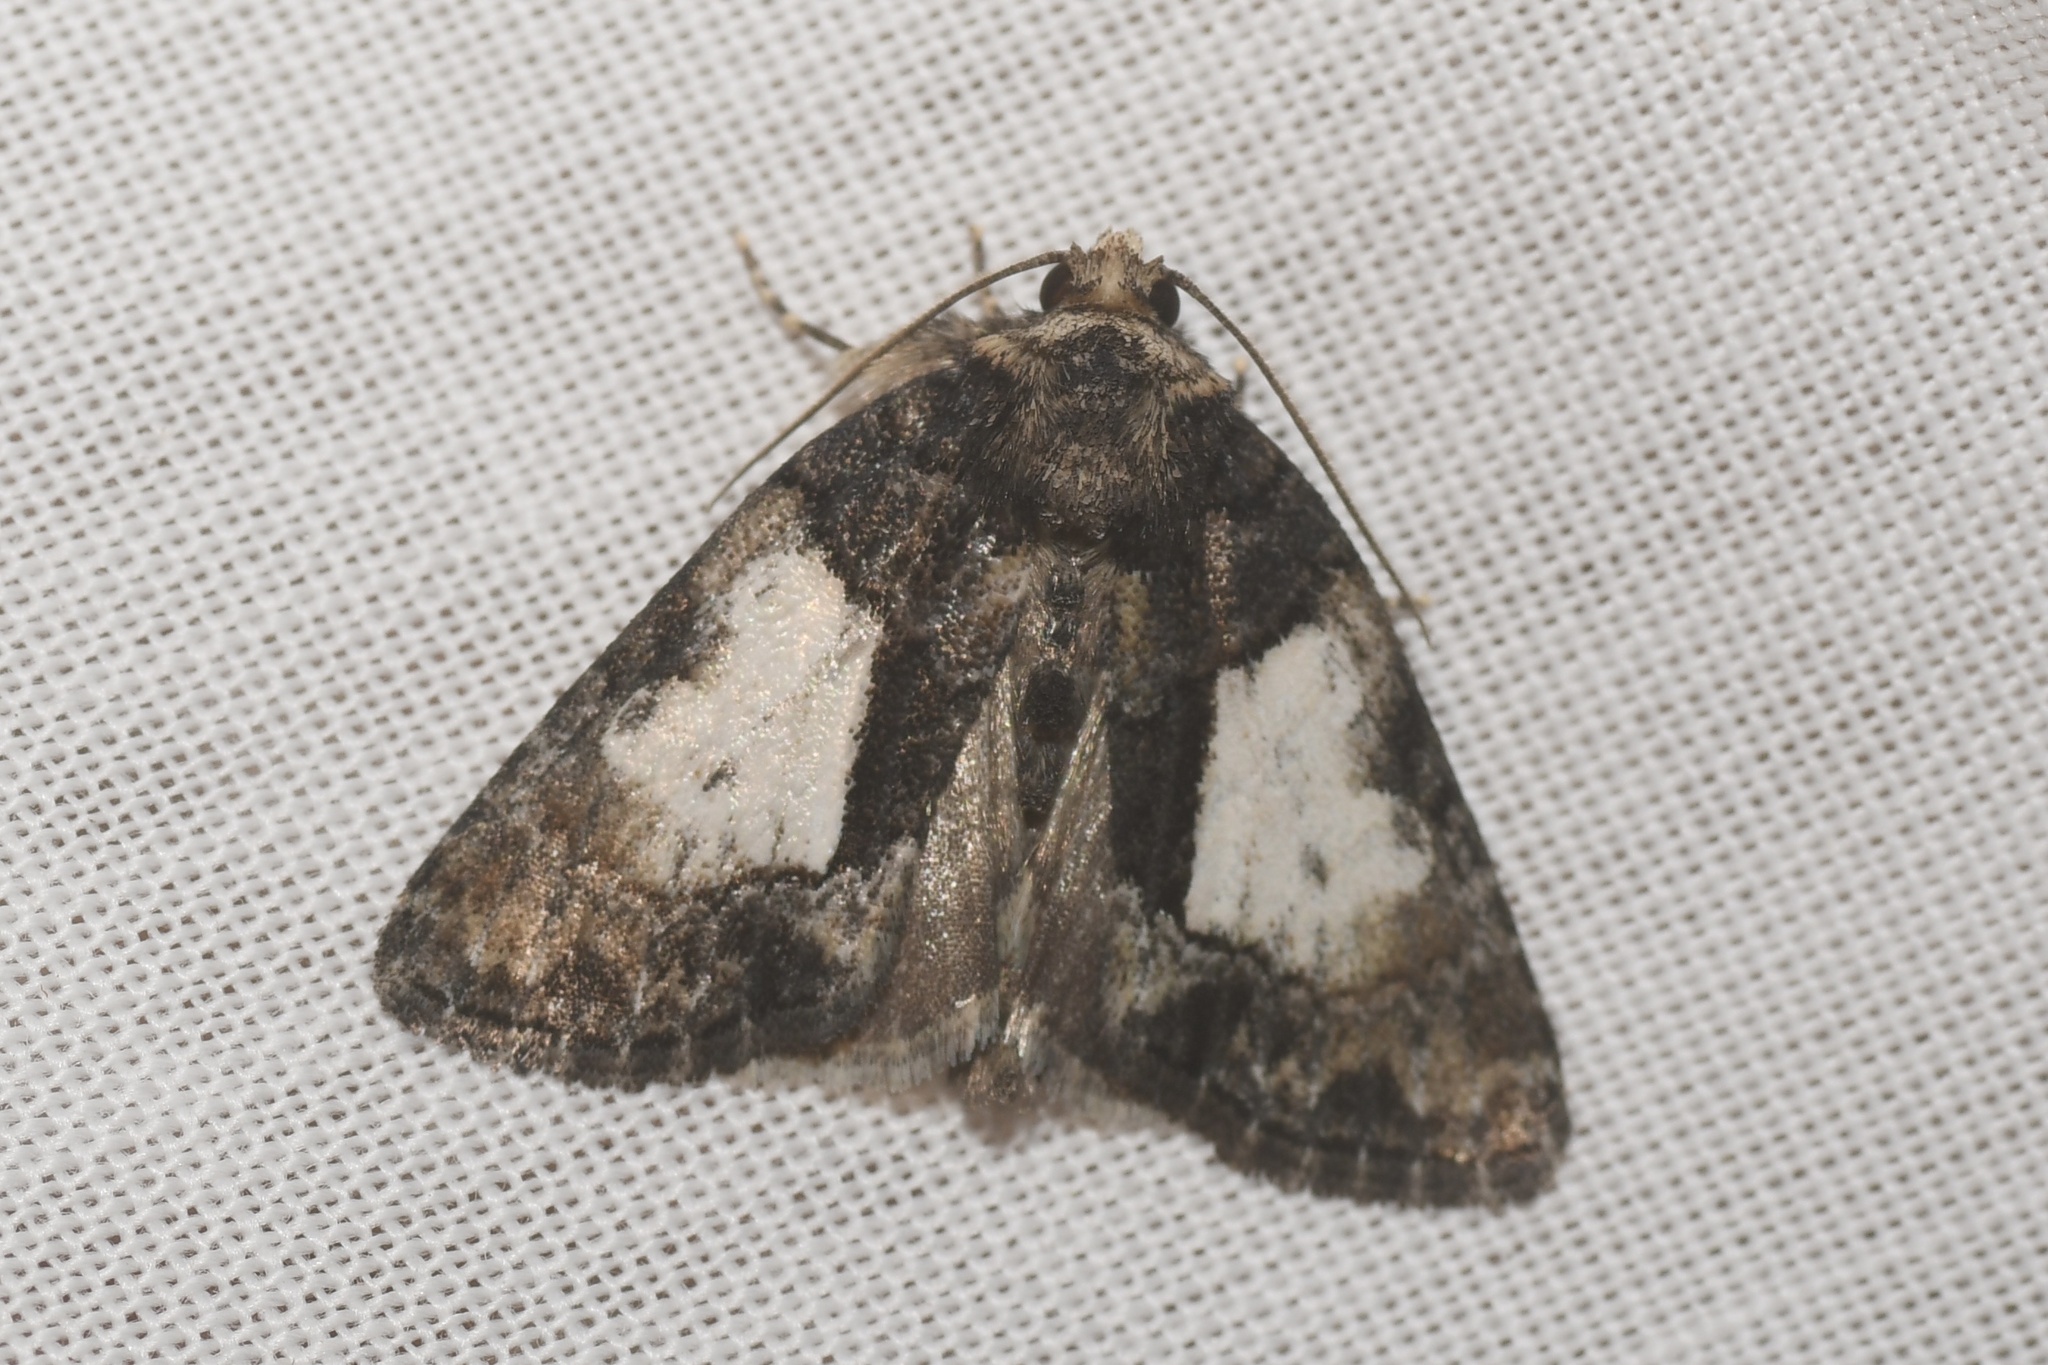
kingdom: Animalia
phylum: Arthropoda
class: Insecta
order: Lepidoptera
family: Noctuidae
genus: Chytonix
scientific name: Chytonix palliatricula
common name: Cloaked marvel
